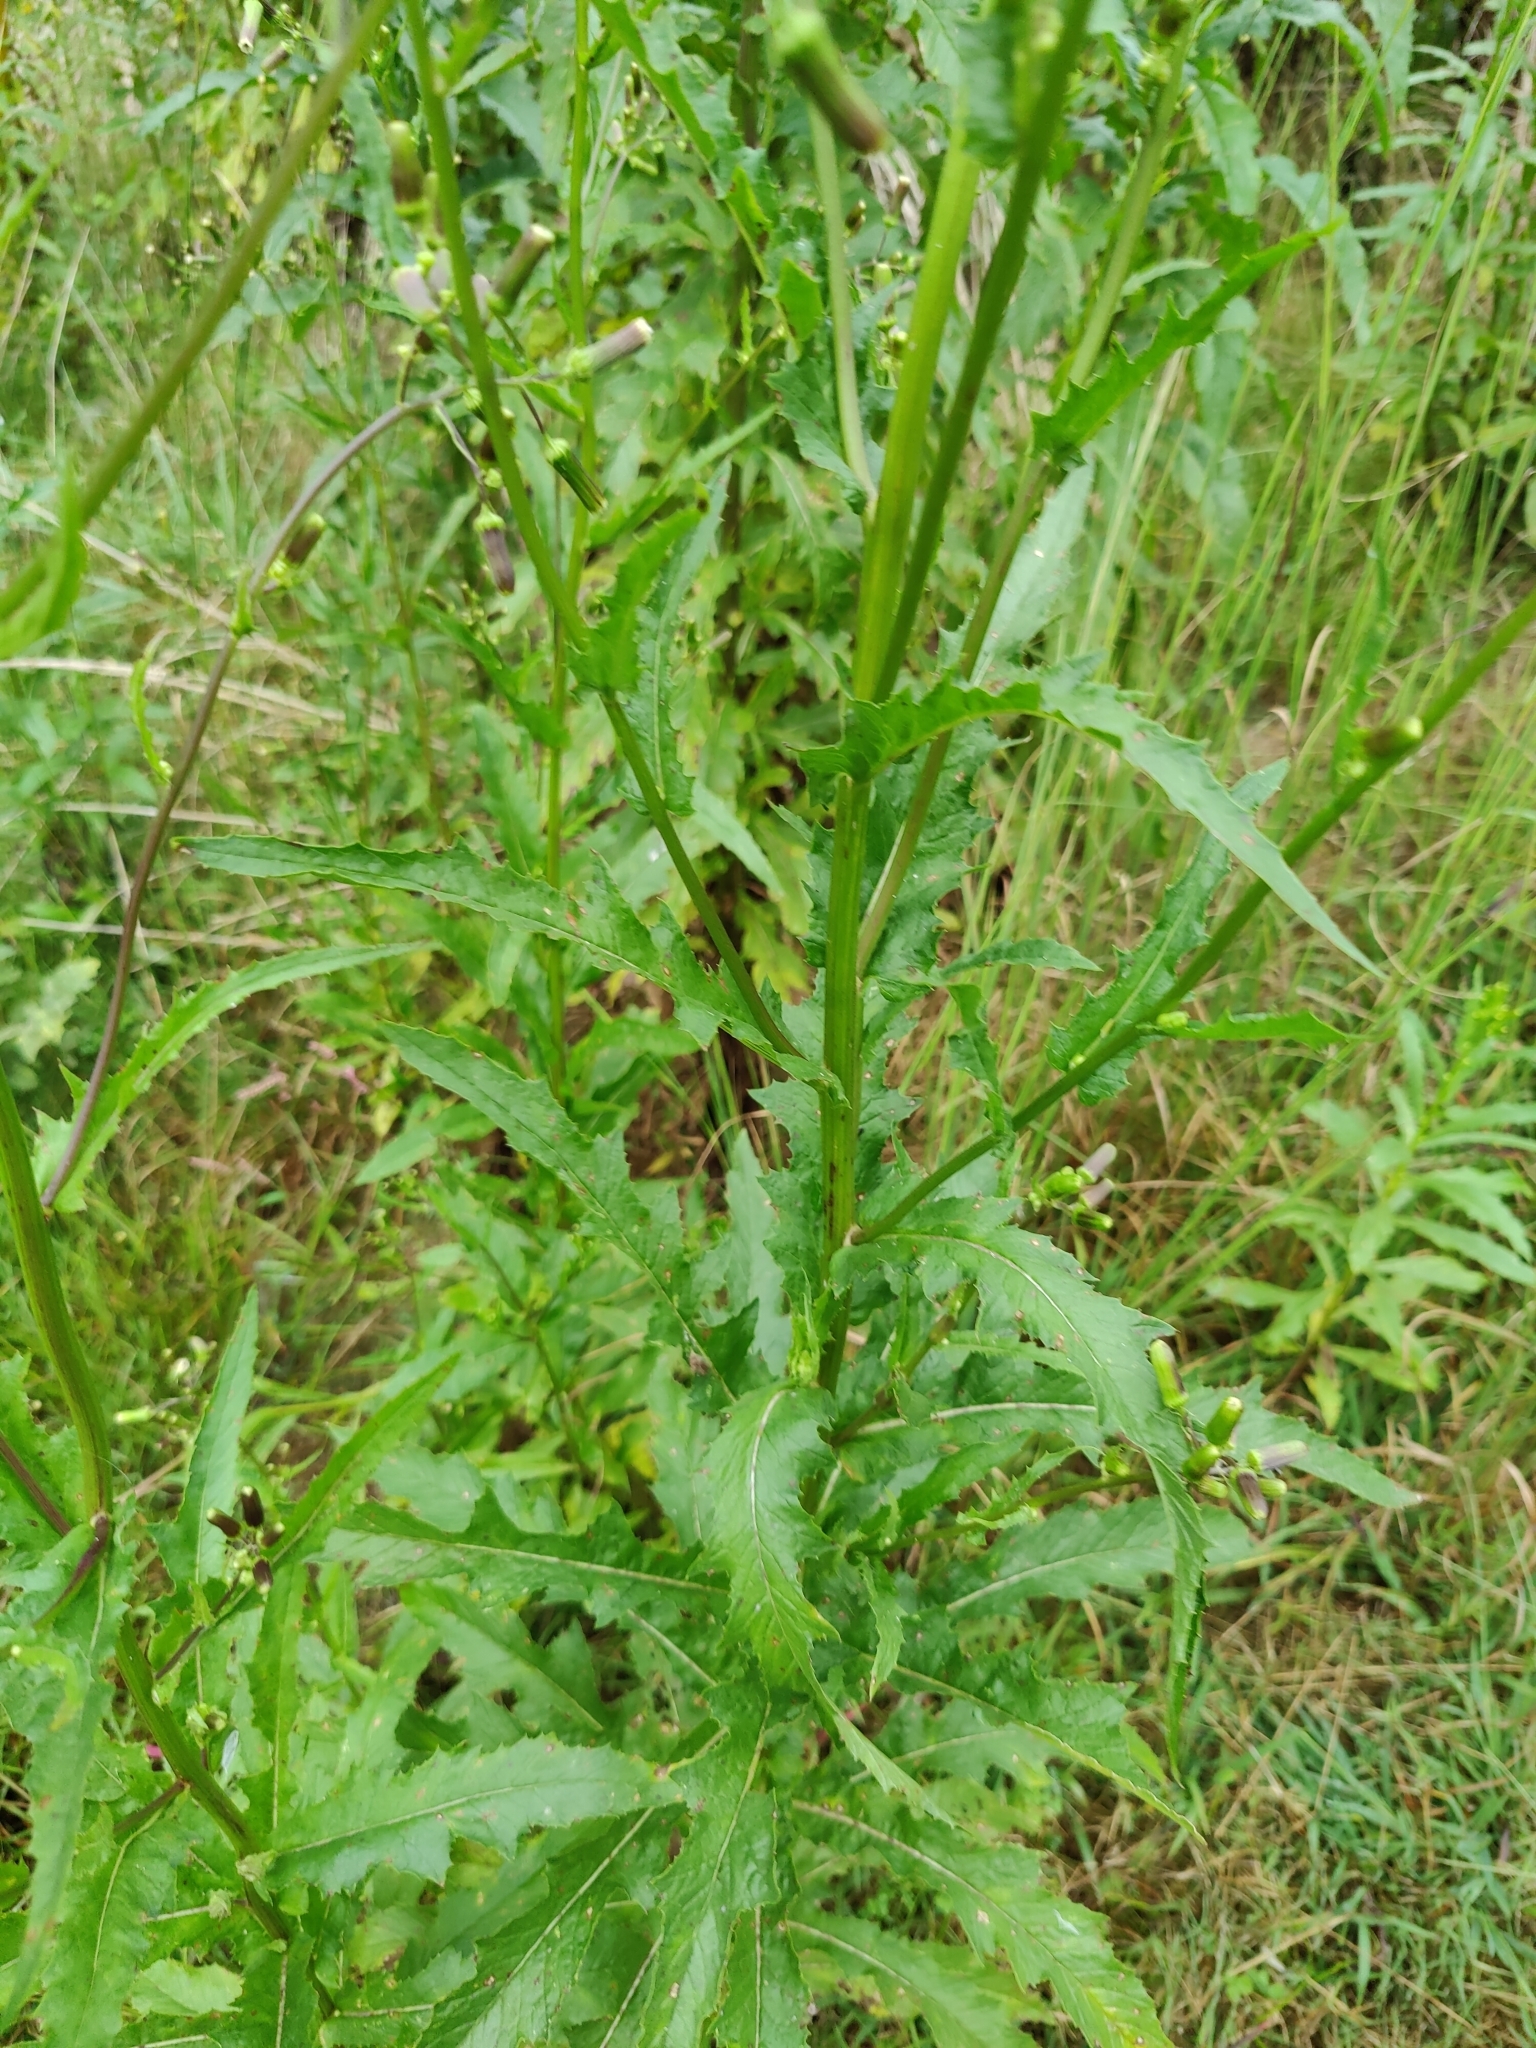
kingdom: Plantae
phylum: Tracheophyta
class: Magnoliopsida
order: Asterales
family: Asteraceae
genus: Erechtites
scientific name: Erechtites hieraciifolius
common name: American burnweed
